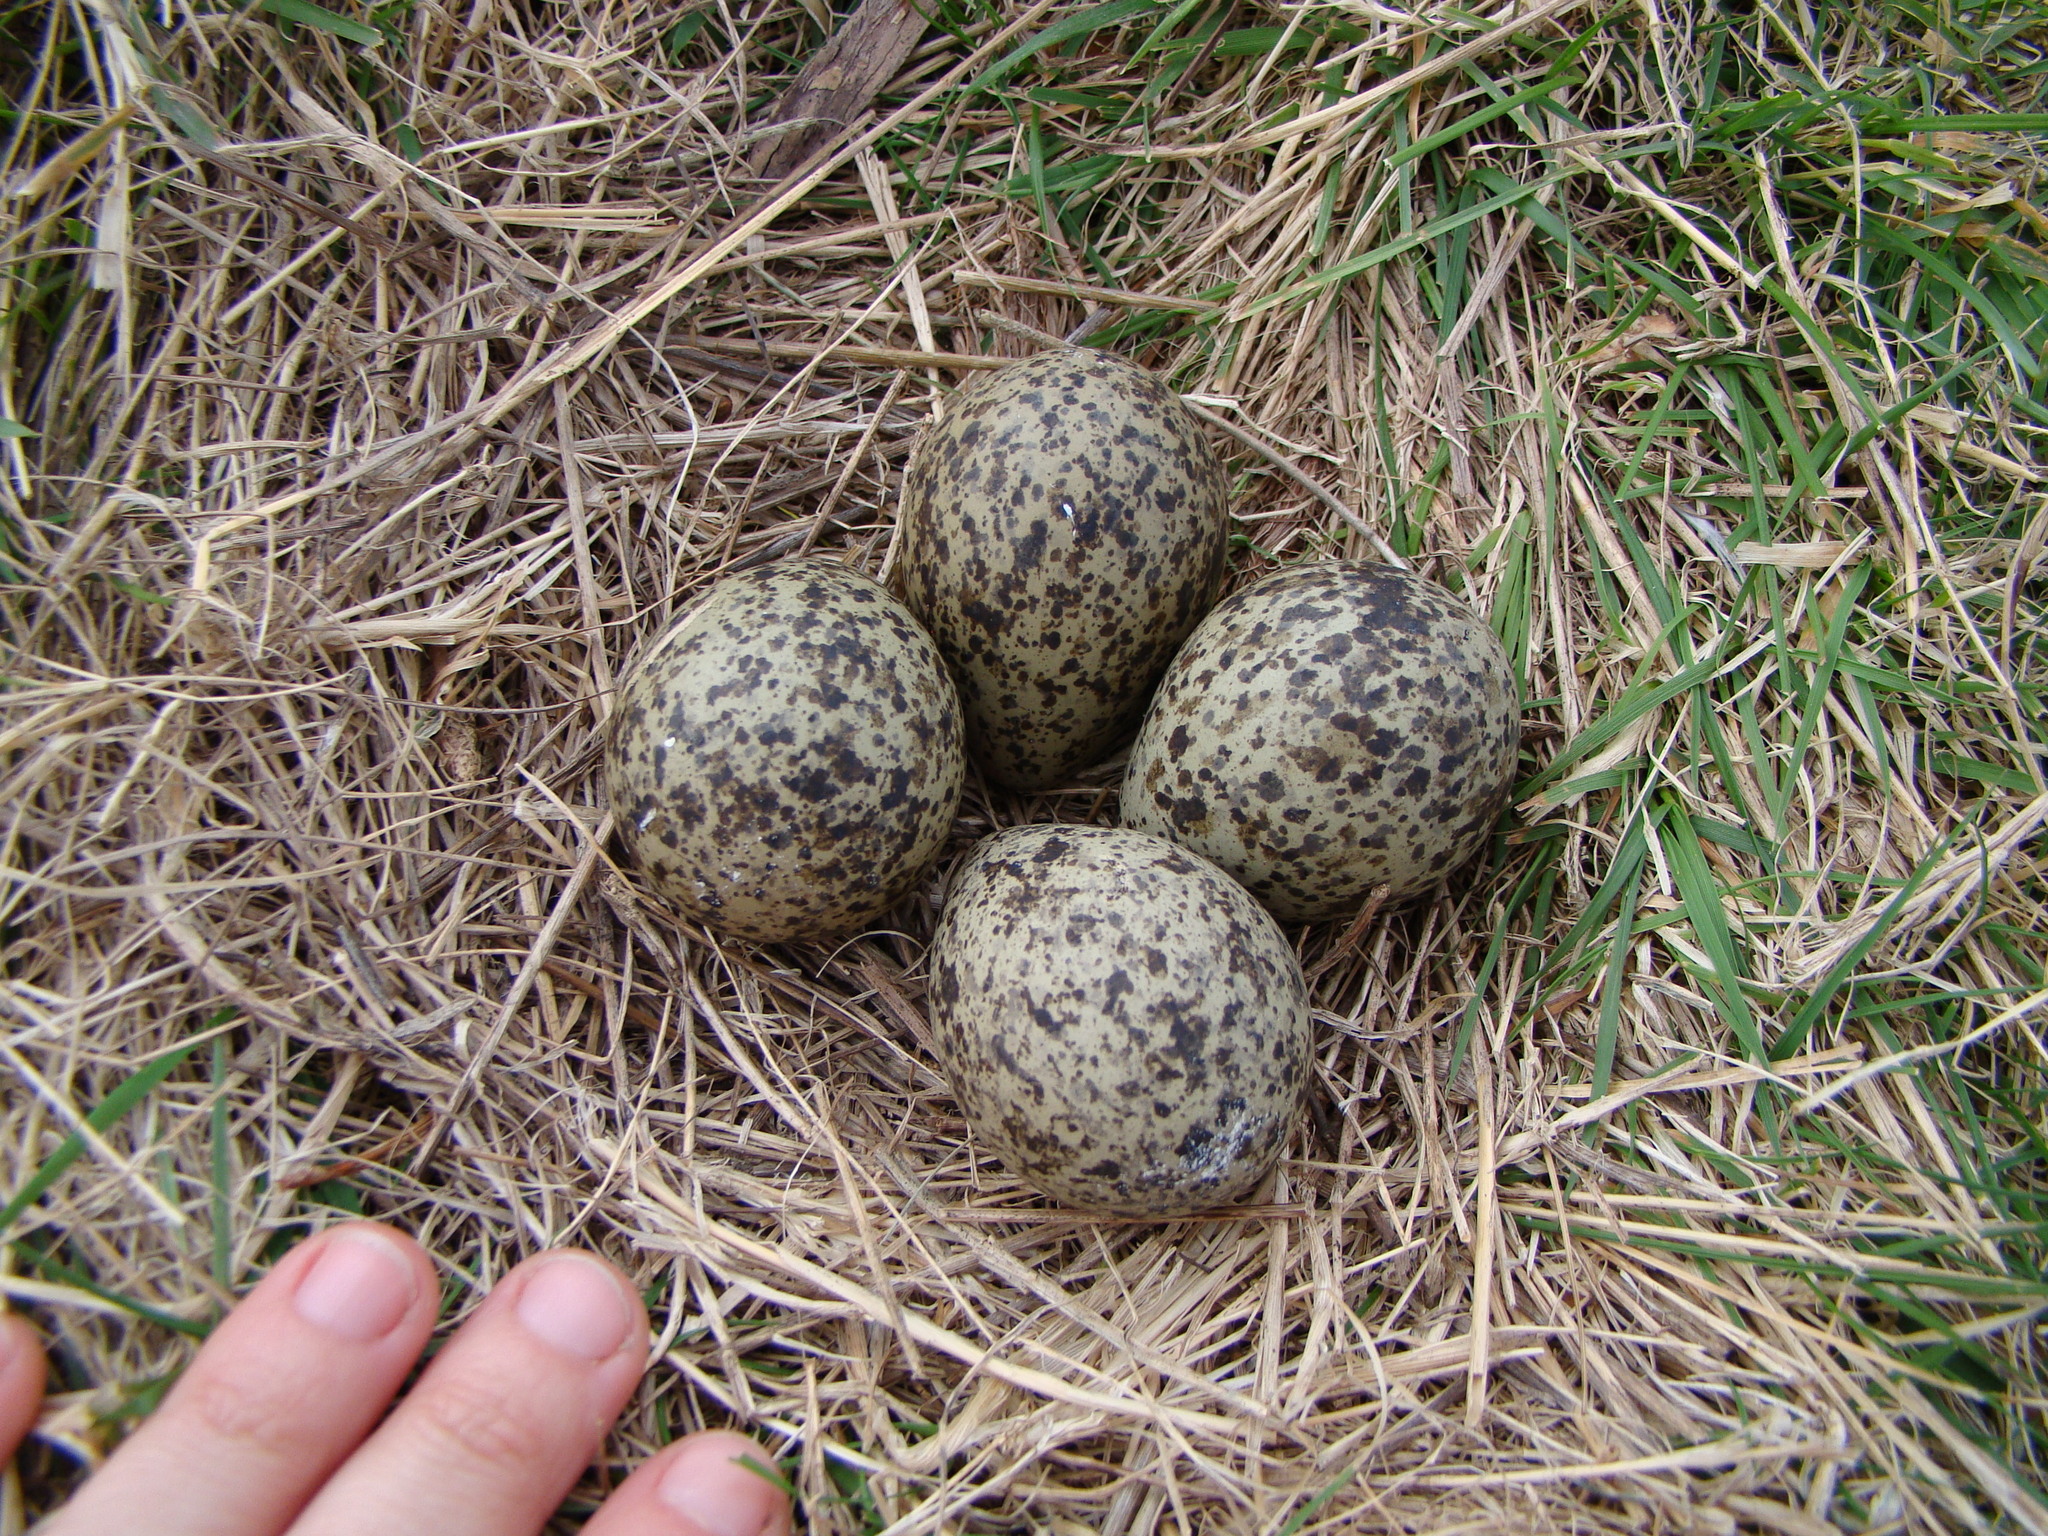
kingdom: Animalia
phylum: Chordata
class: Aves
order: Charadriiformes
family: Charadriidae
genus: Vanellus
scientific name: Vanellus miles
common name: Masked lapwing
